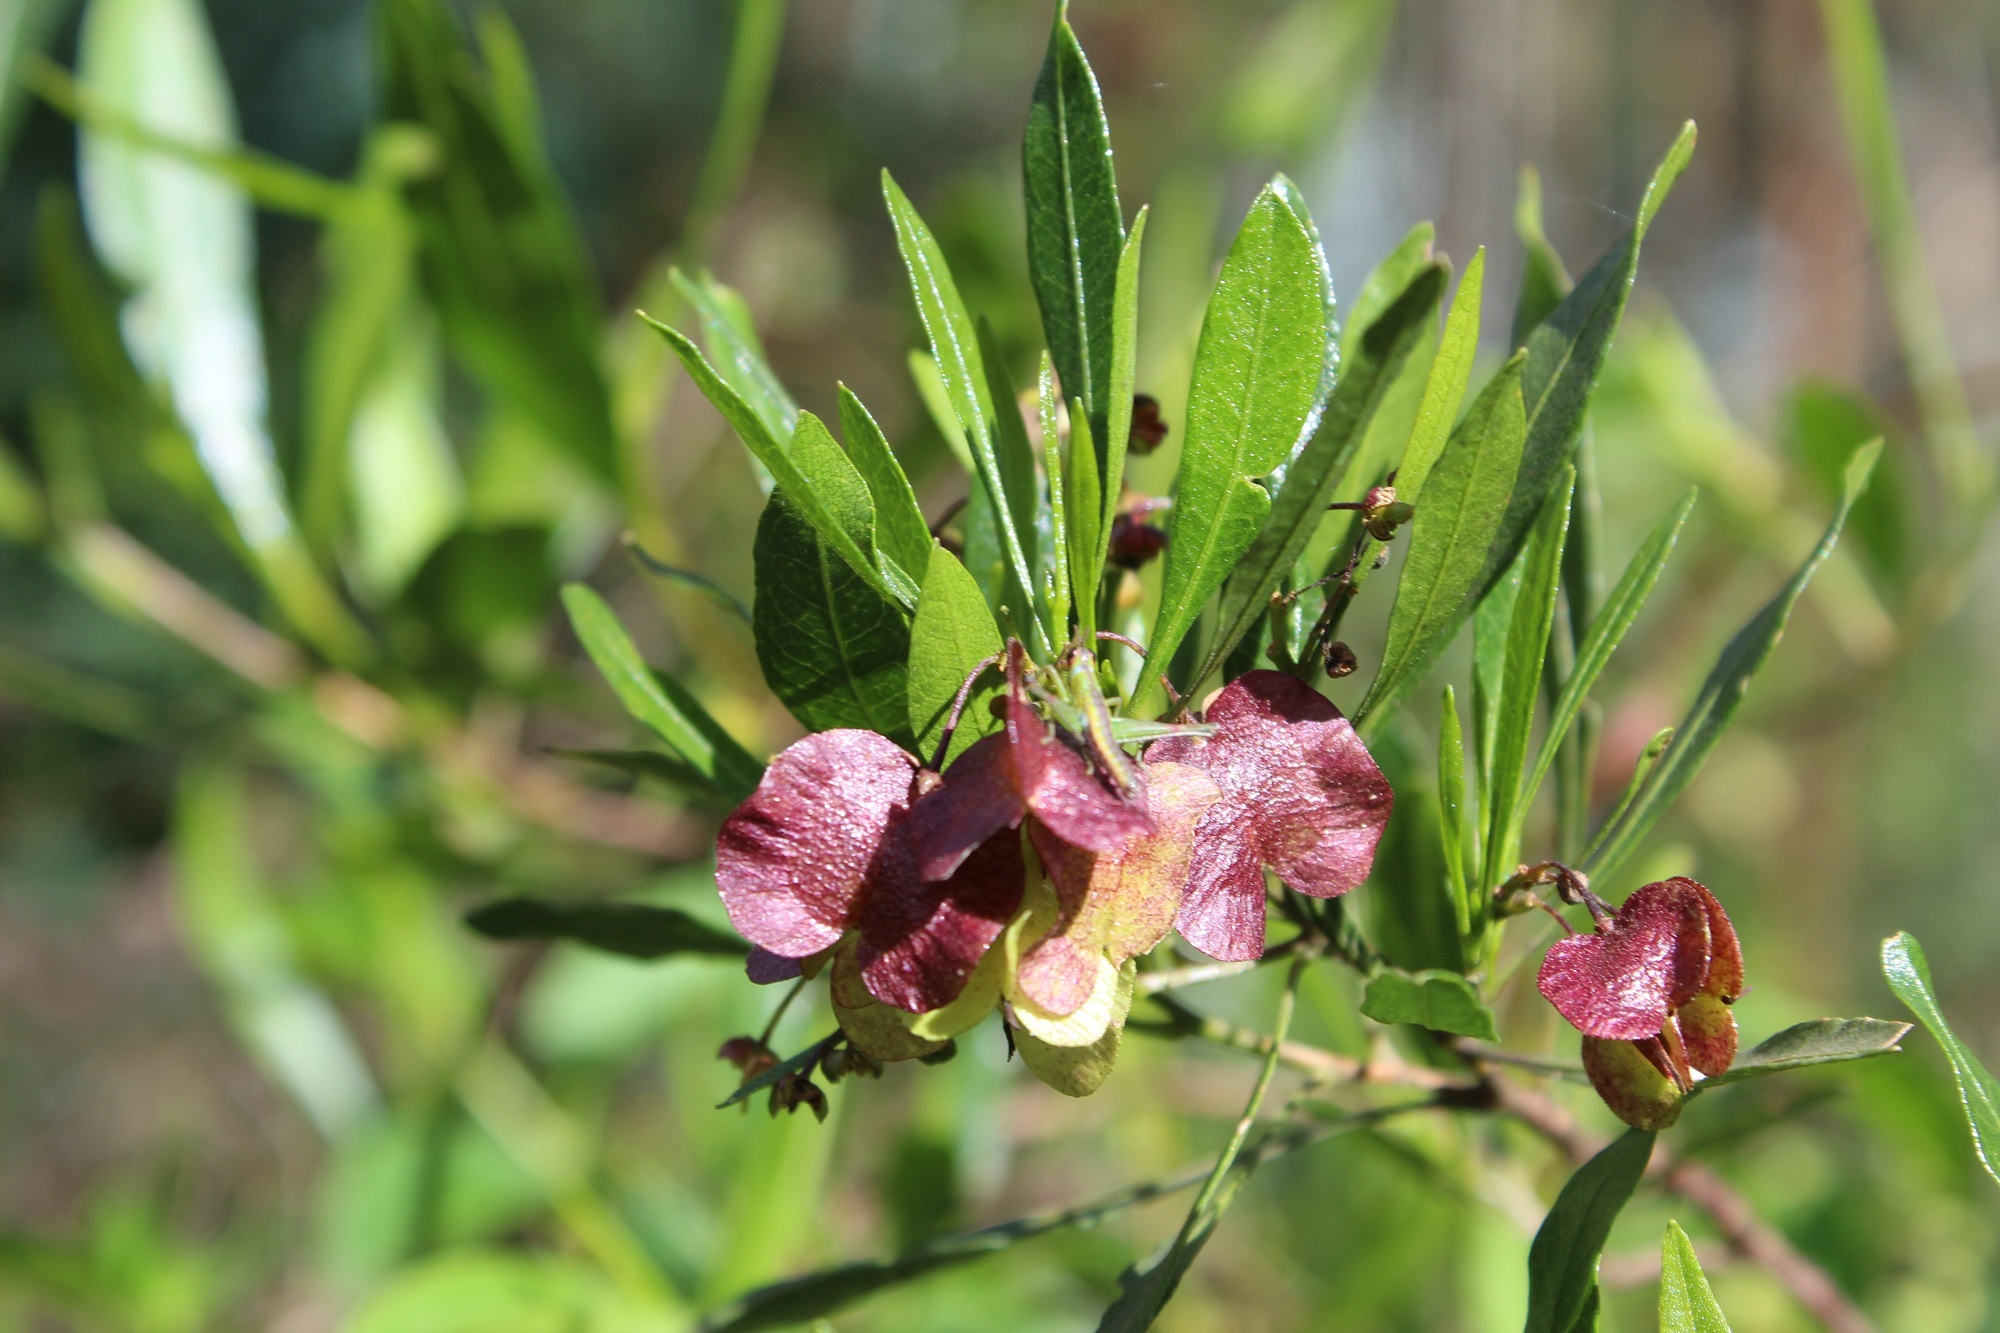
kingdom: Plantae
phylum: Tracheophyta
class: Magnoliopsida
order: Sapindales
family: Sapindaceae
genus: Dodonaea
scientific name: Dodonaea viscosa
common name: Hopbush
